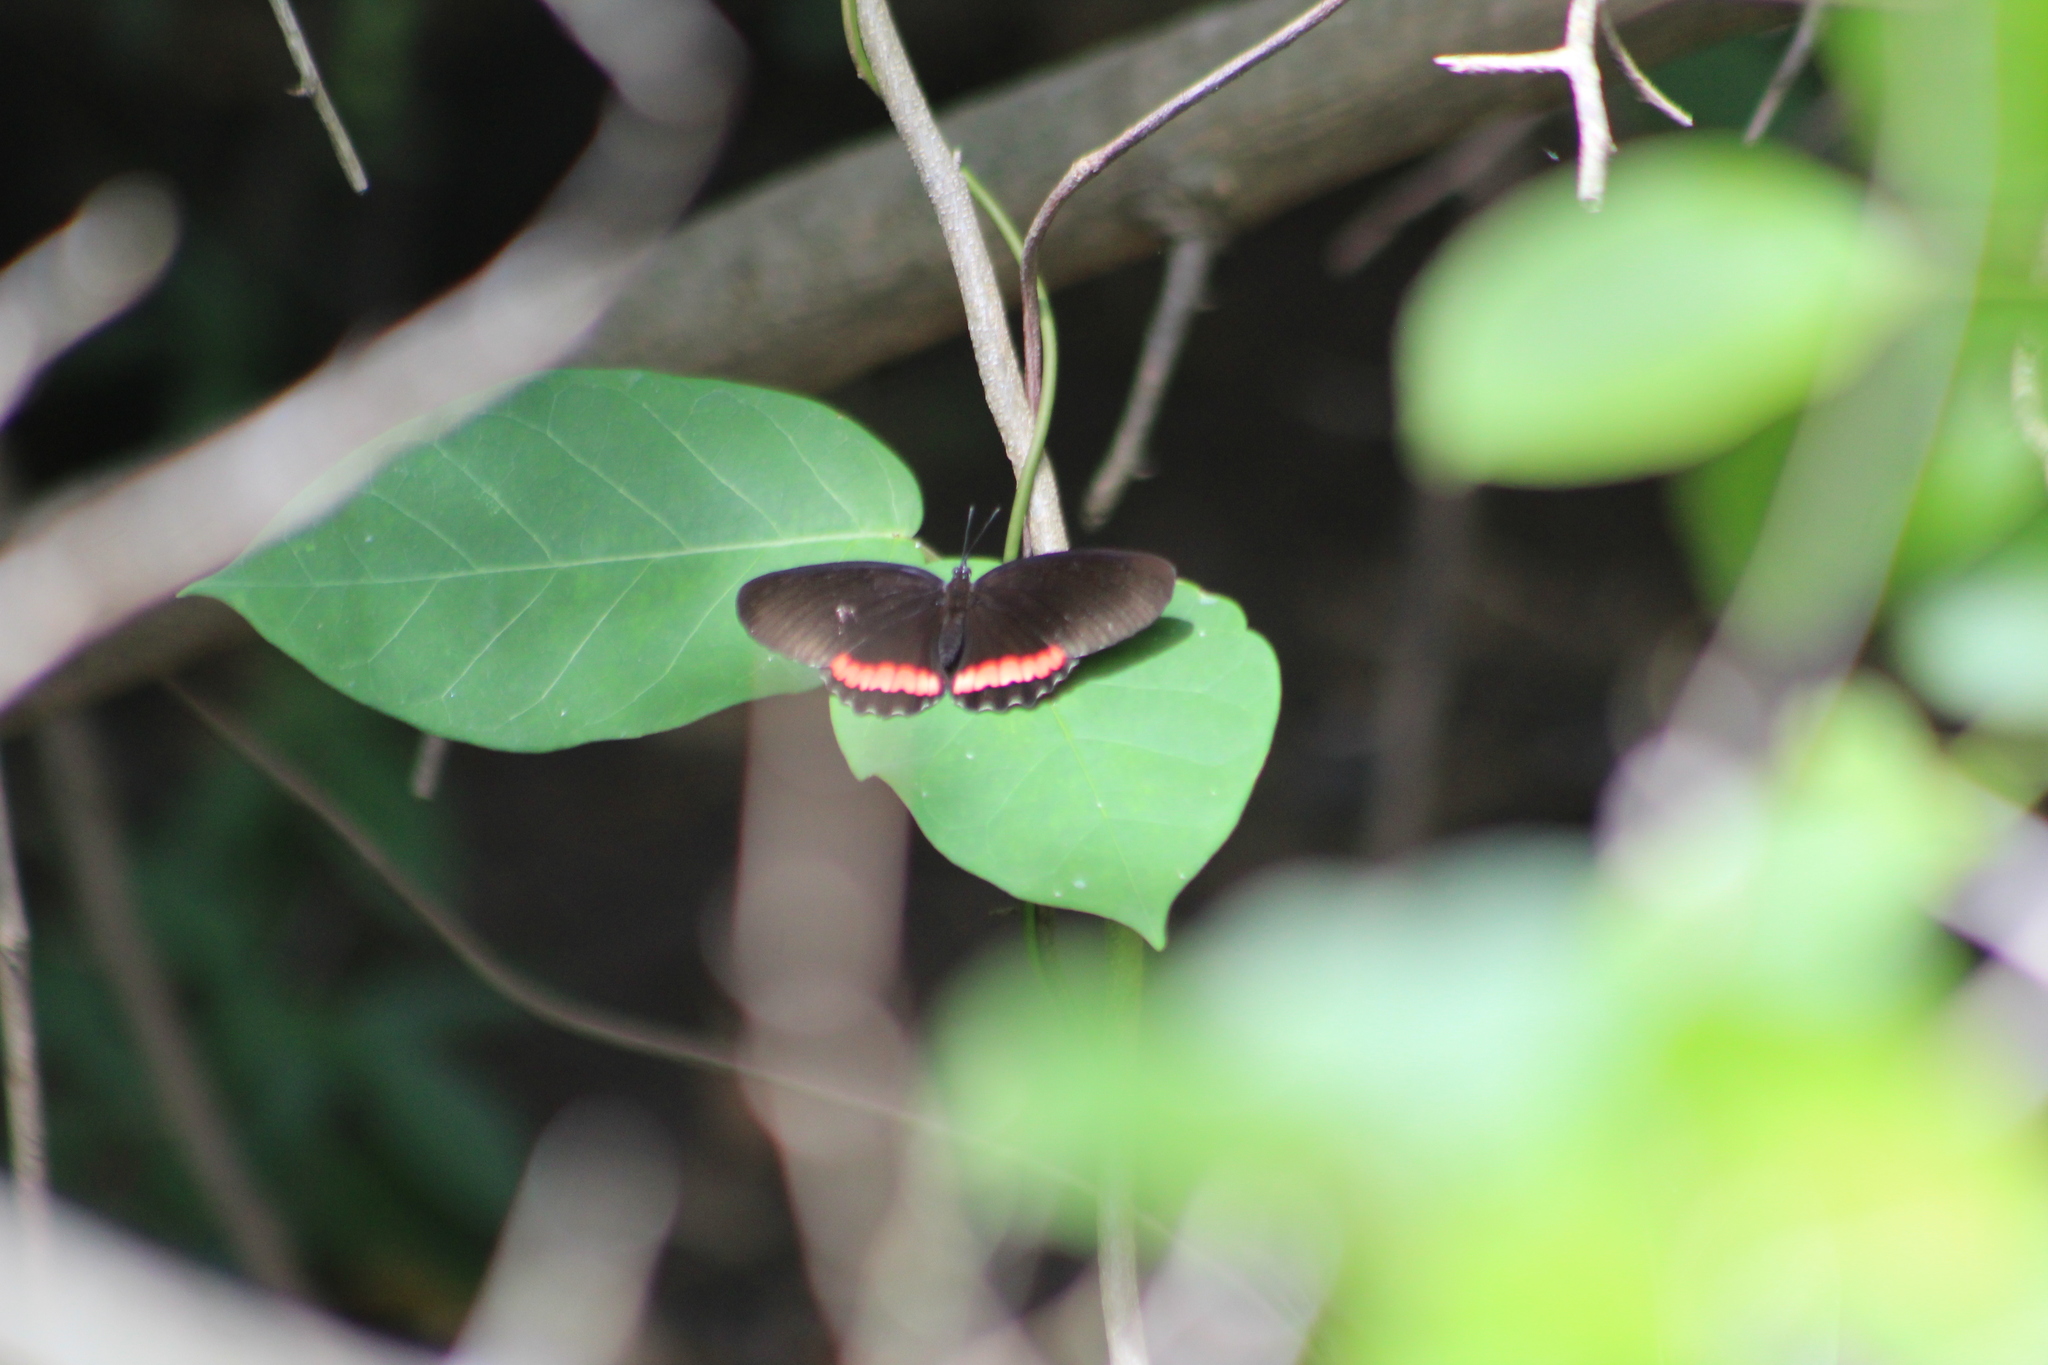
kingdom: Animalia
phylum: Arthropoda
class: Insecta
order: Lepidoptera
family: Nymphalidae
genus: Biblis
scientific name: Biblis aganisa
